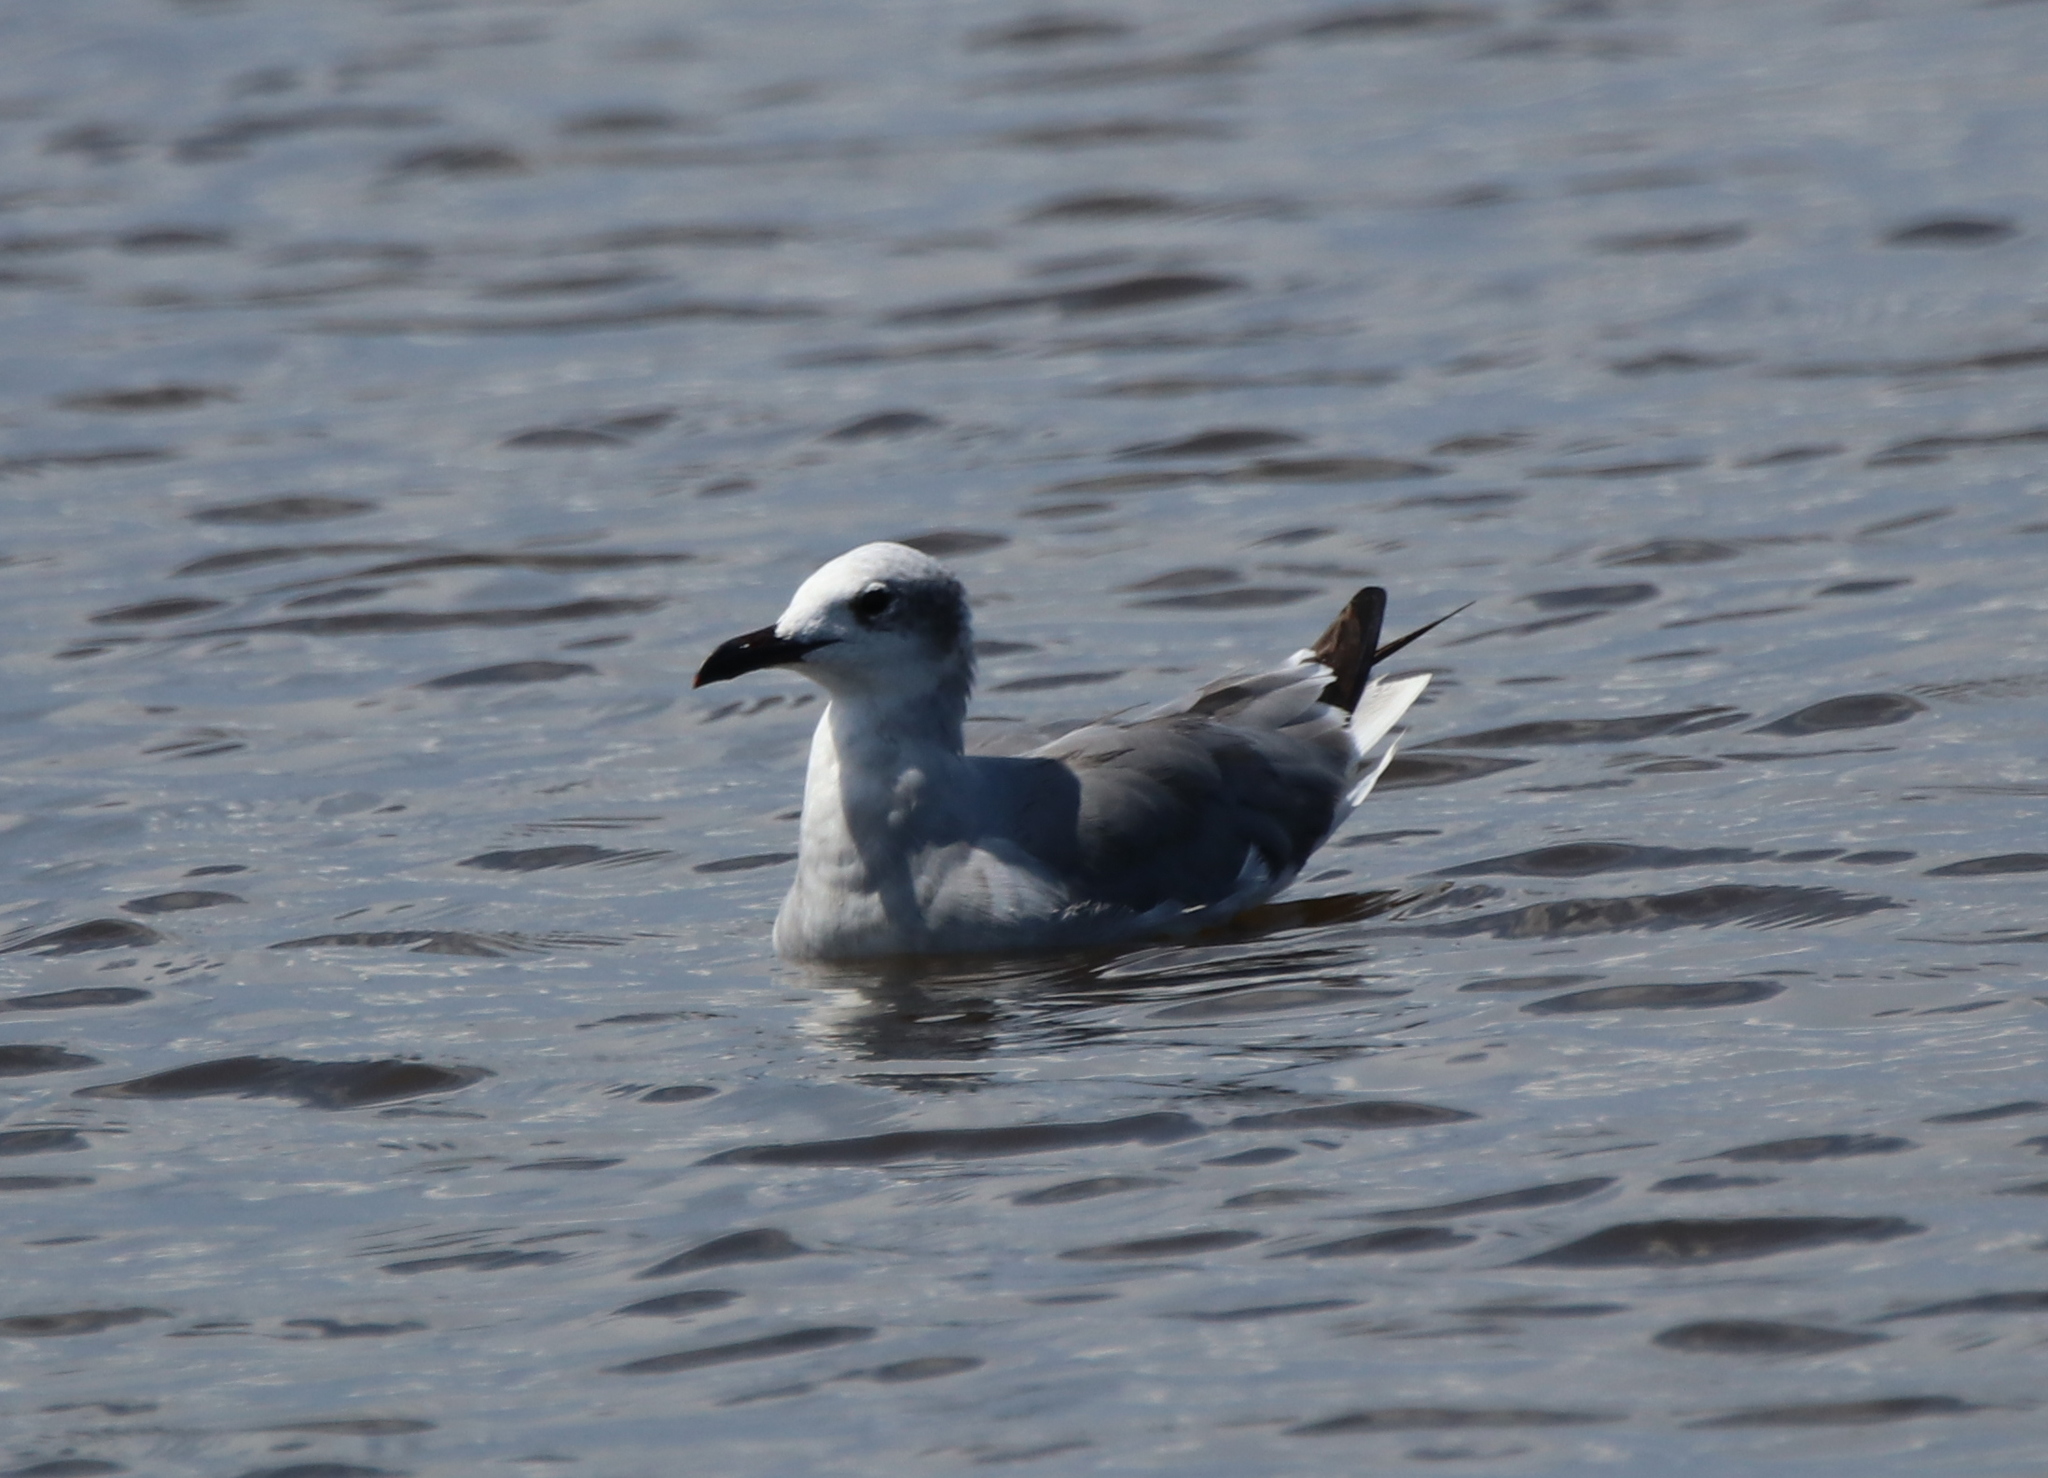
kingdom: Animalia
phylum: Chordata
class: Aves
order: Charadriiformes
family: Laridae
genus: Leucophaeus
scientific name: Leucophaeus atricilla
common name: Laughing gull
